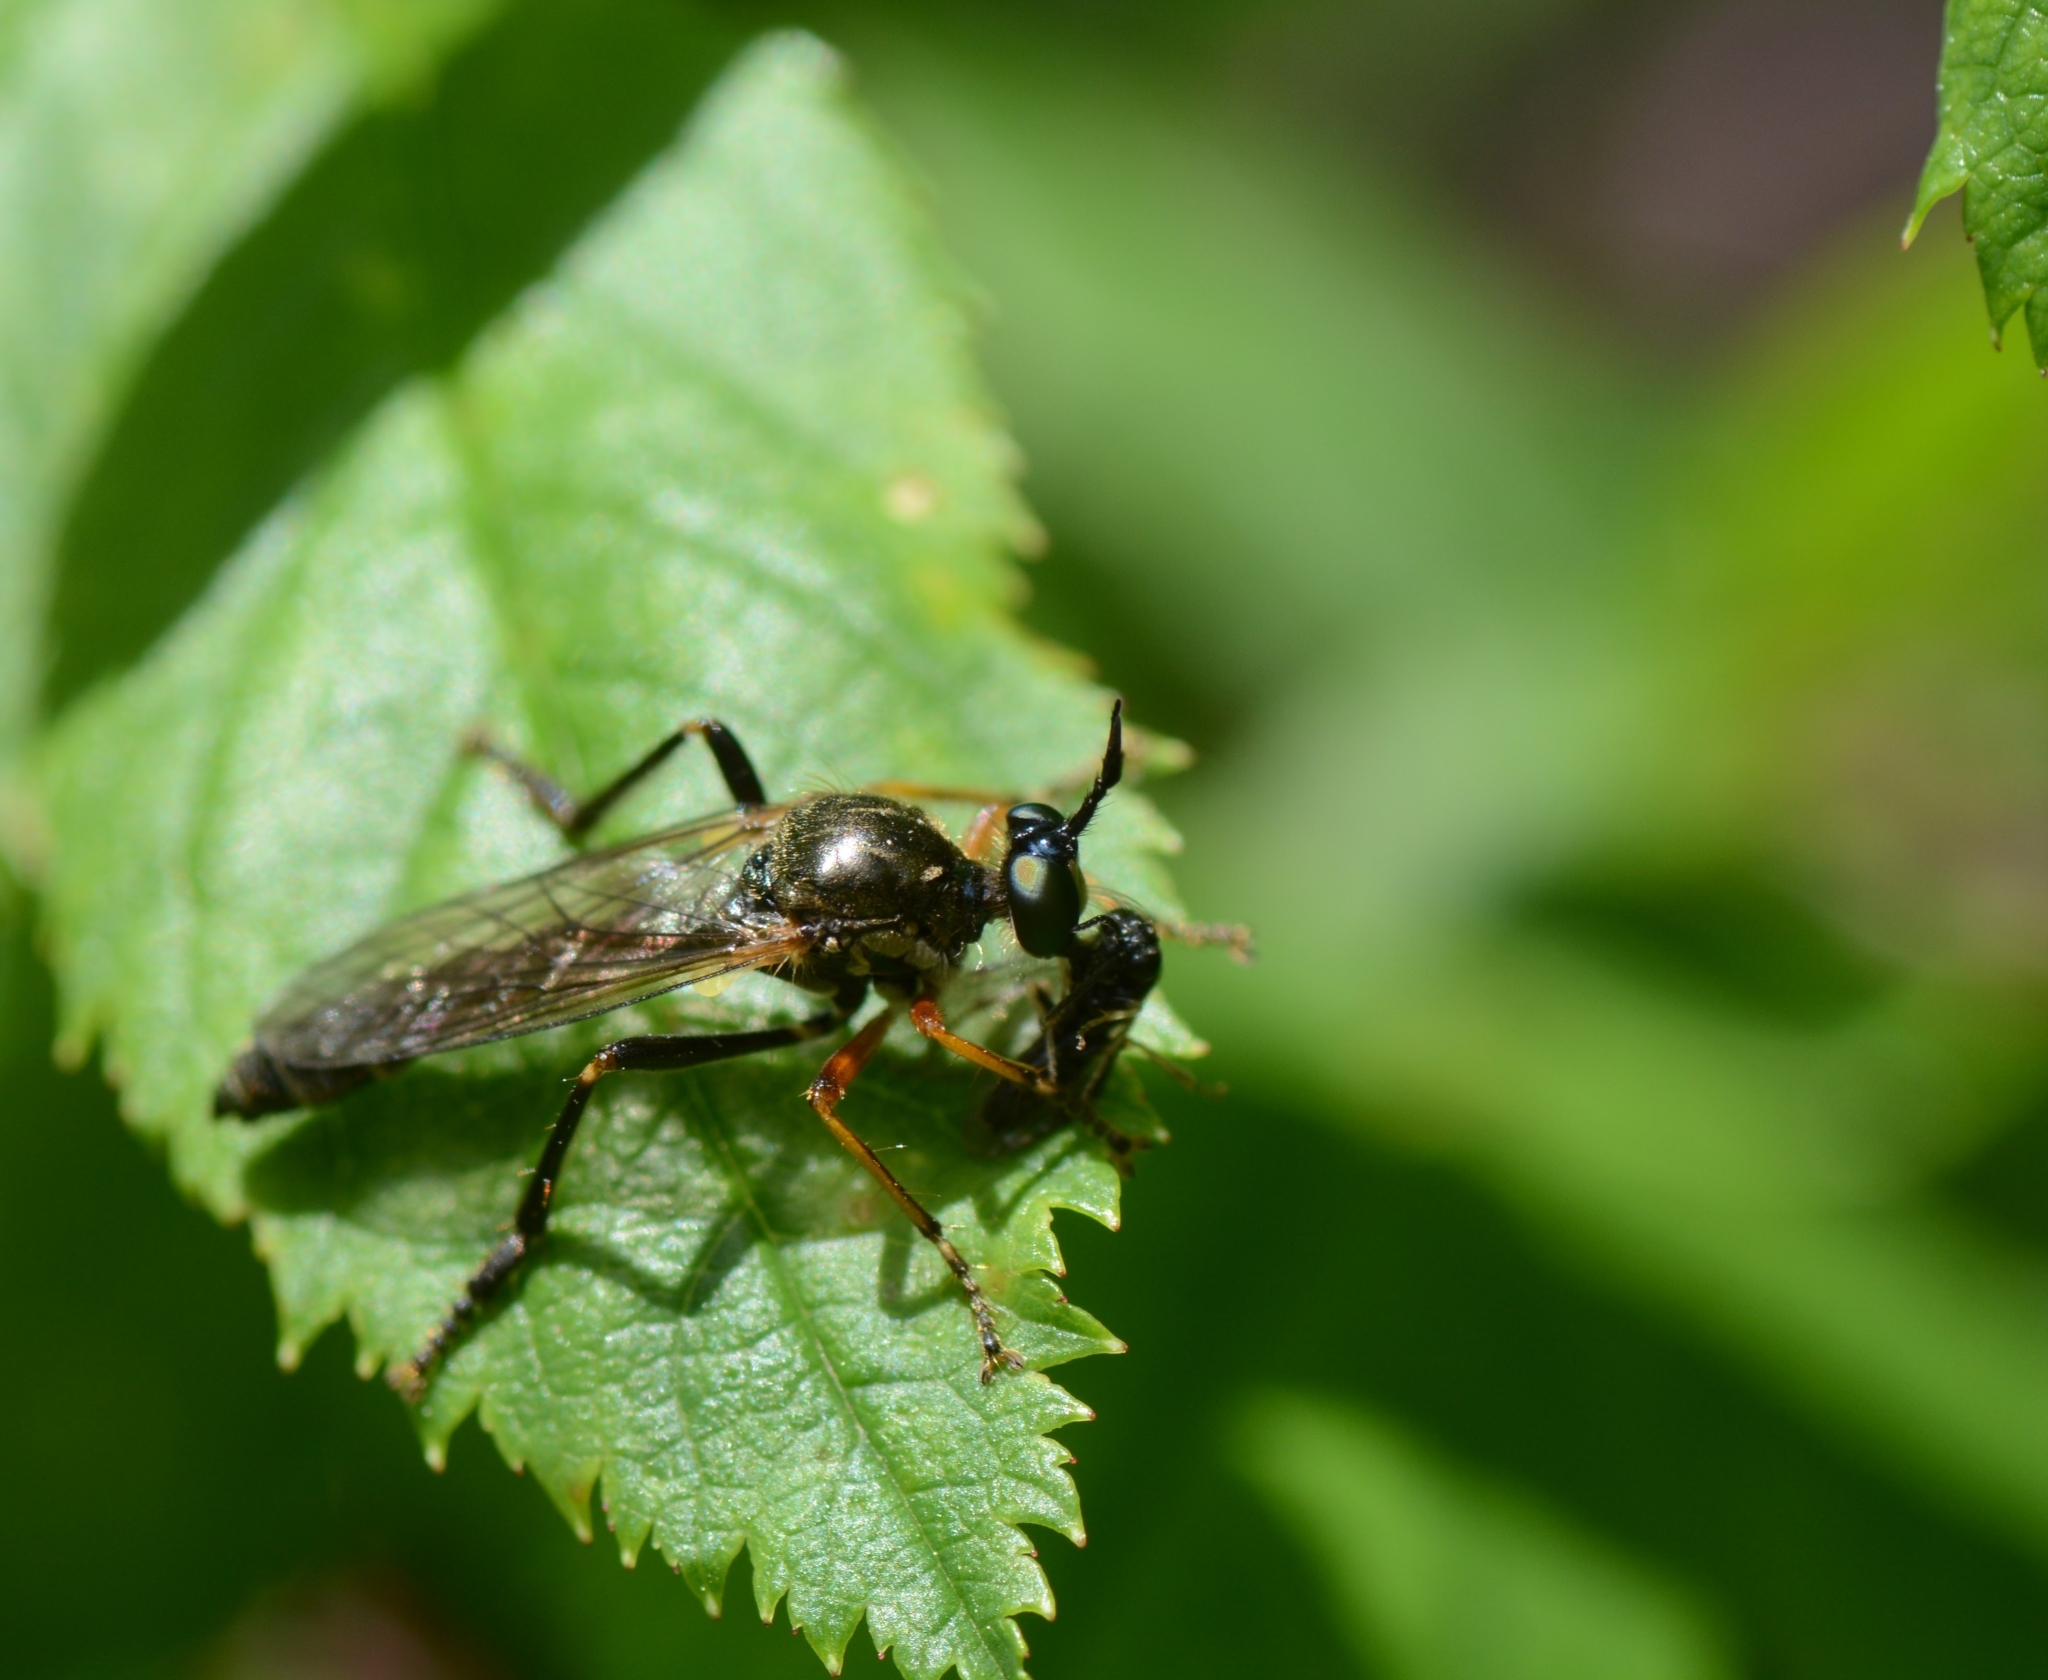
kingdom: Animalia
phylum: Arthropoda
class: Insecta
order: Diptera
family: Asilidae
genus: Dioctria
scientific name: Dioctria rufipes
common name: Common red-legged robberfly
